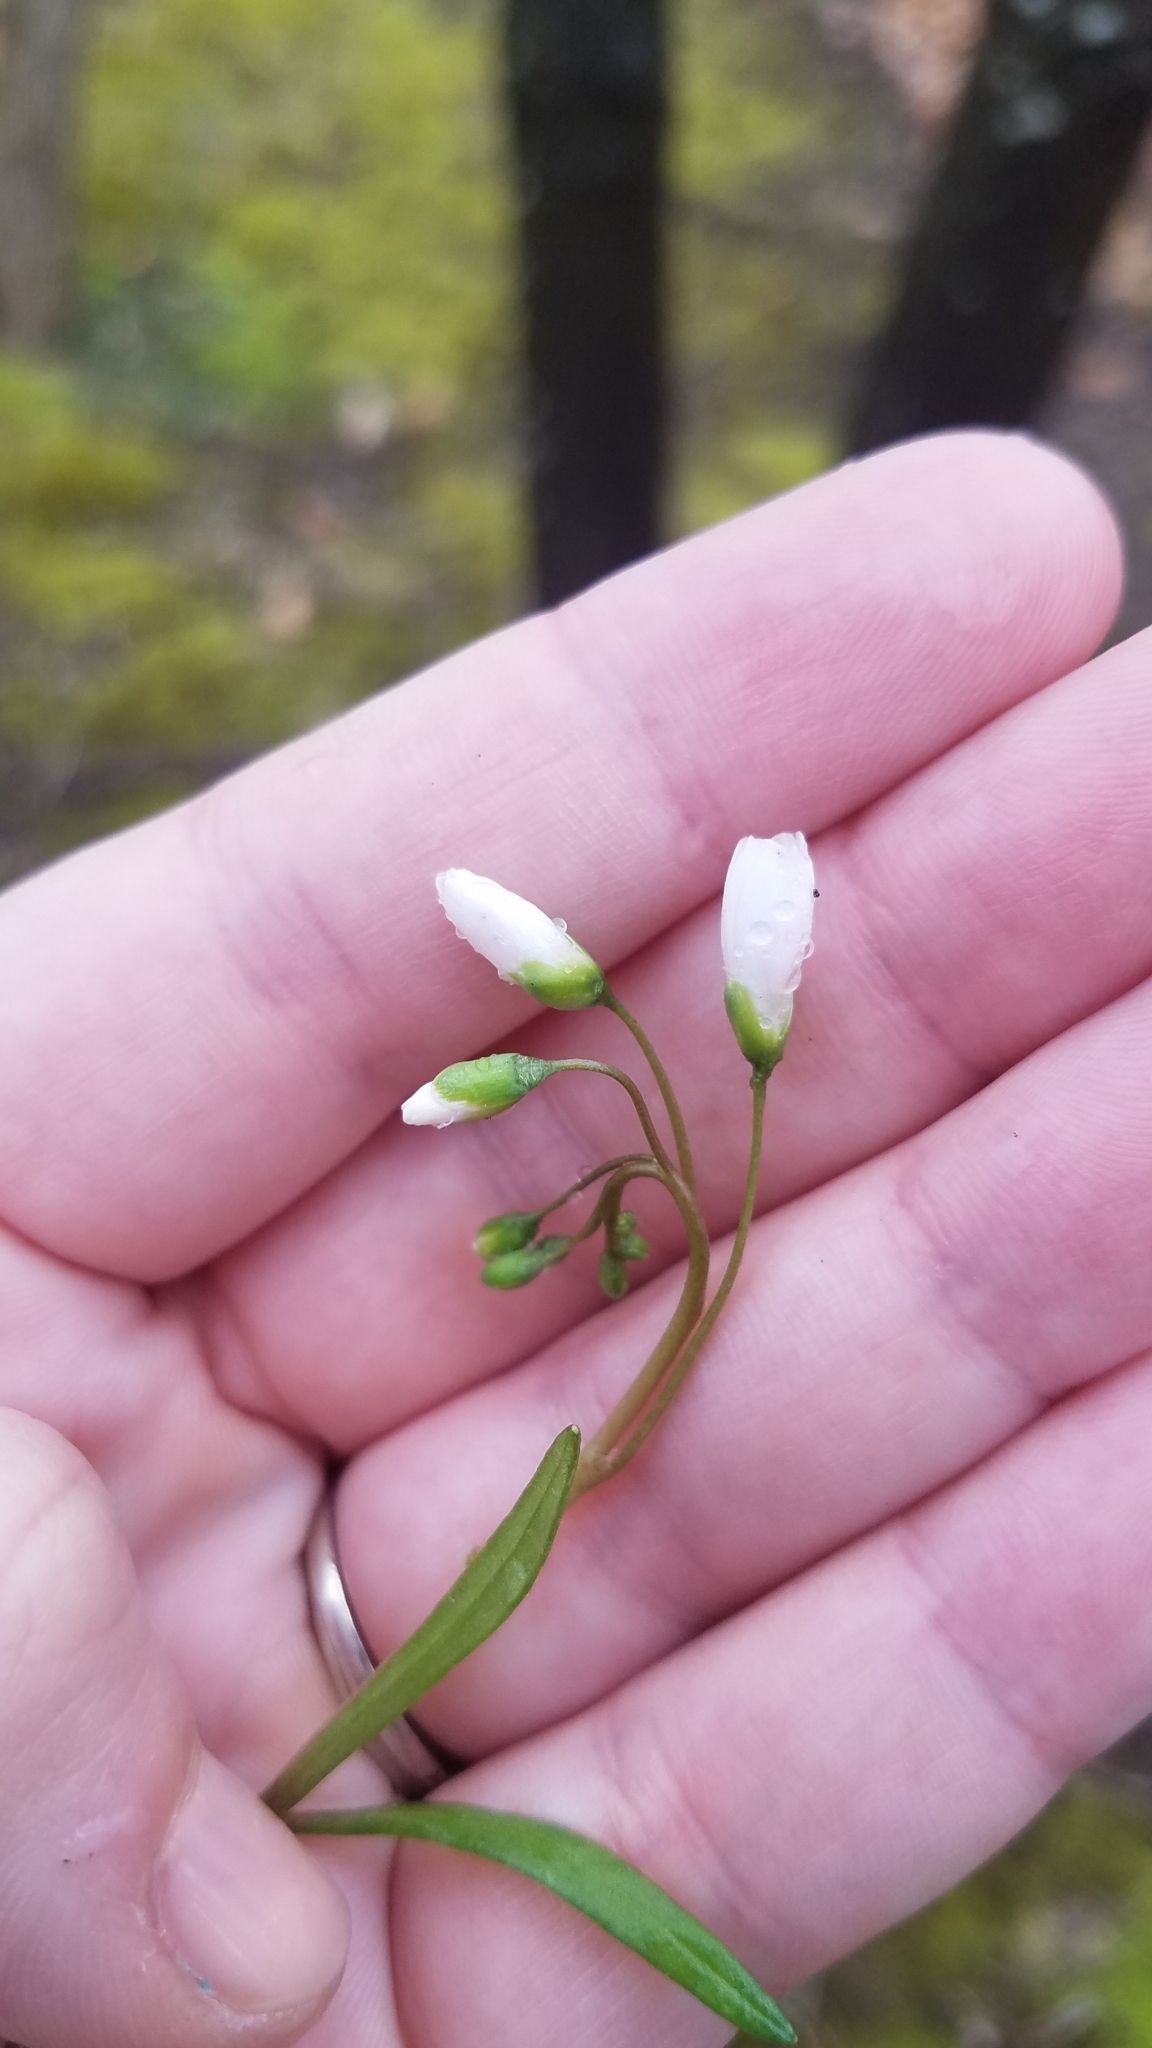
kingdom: Plantae
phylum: Tracheophyta
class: Magnoliopsida
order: Caryophyllales
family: Montiaceae
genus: Claytonia
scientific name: Claytonia virginica
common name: Virginia springbeauty
